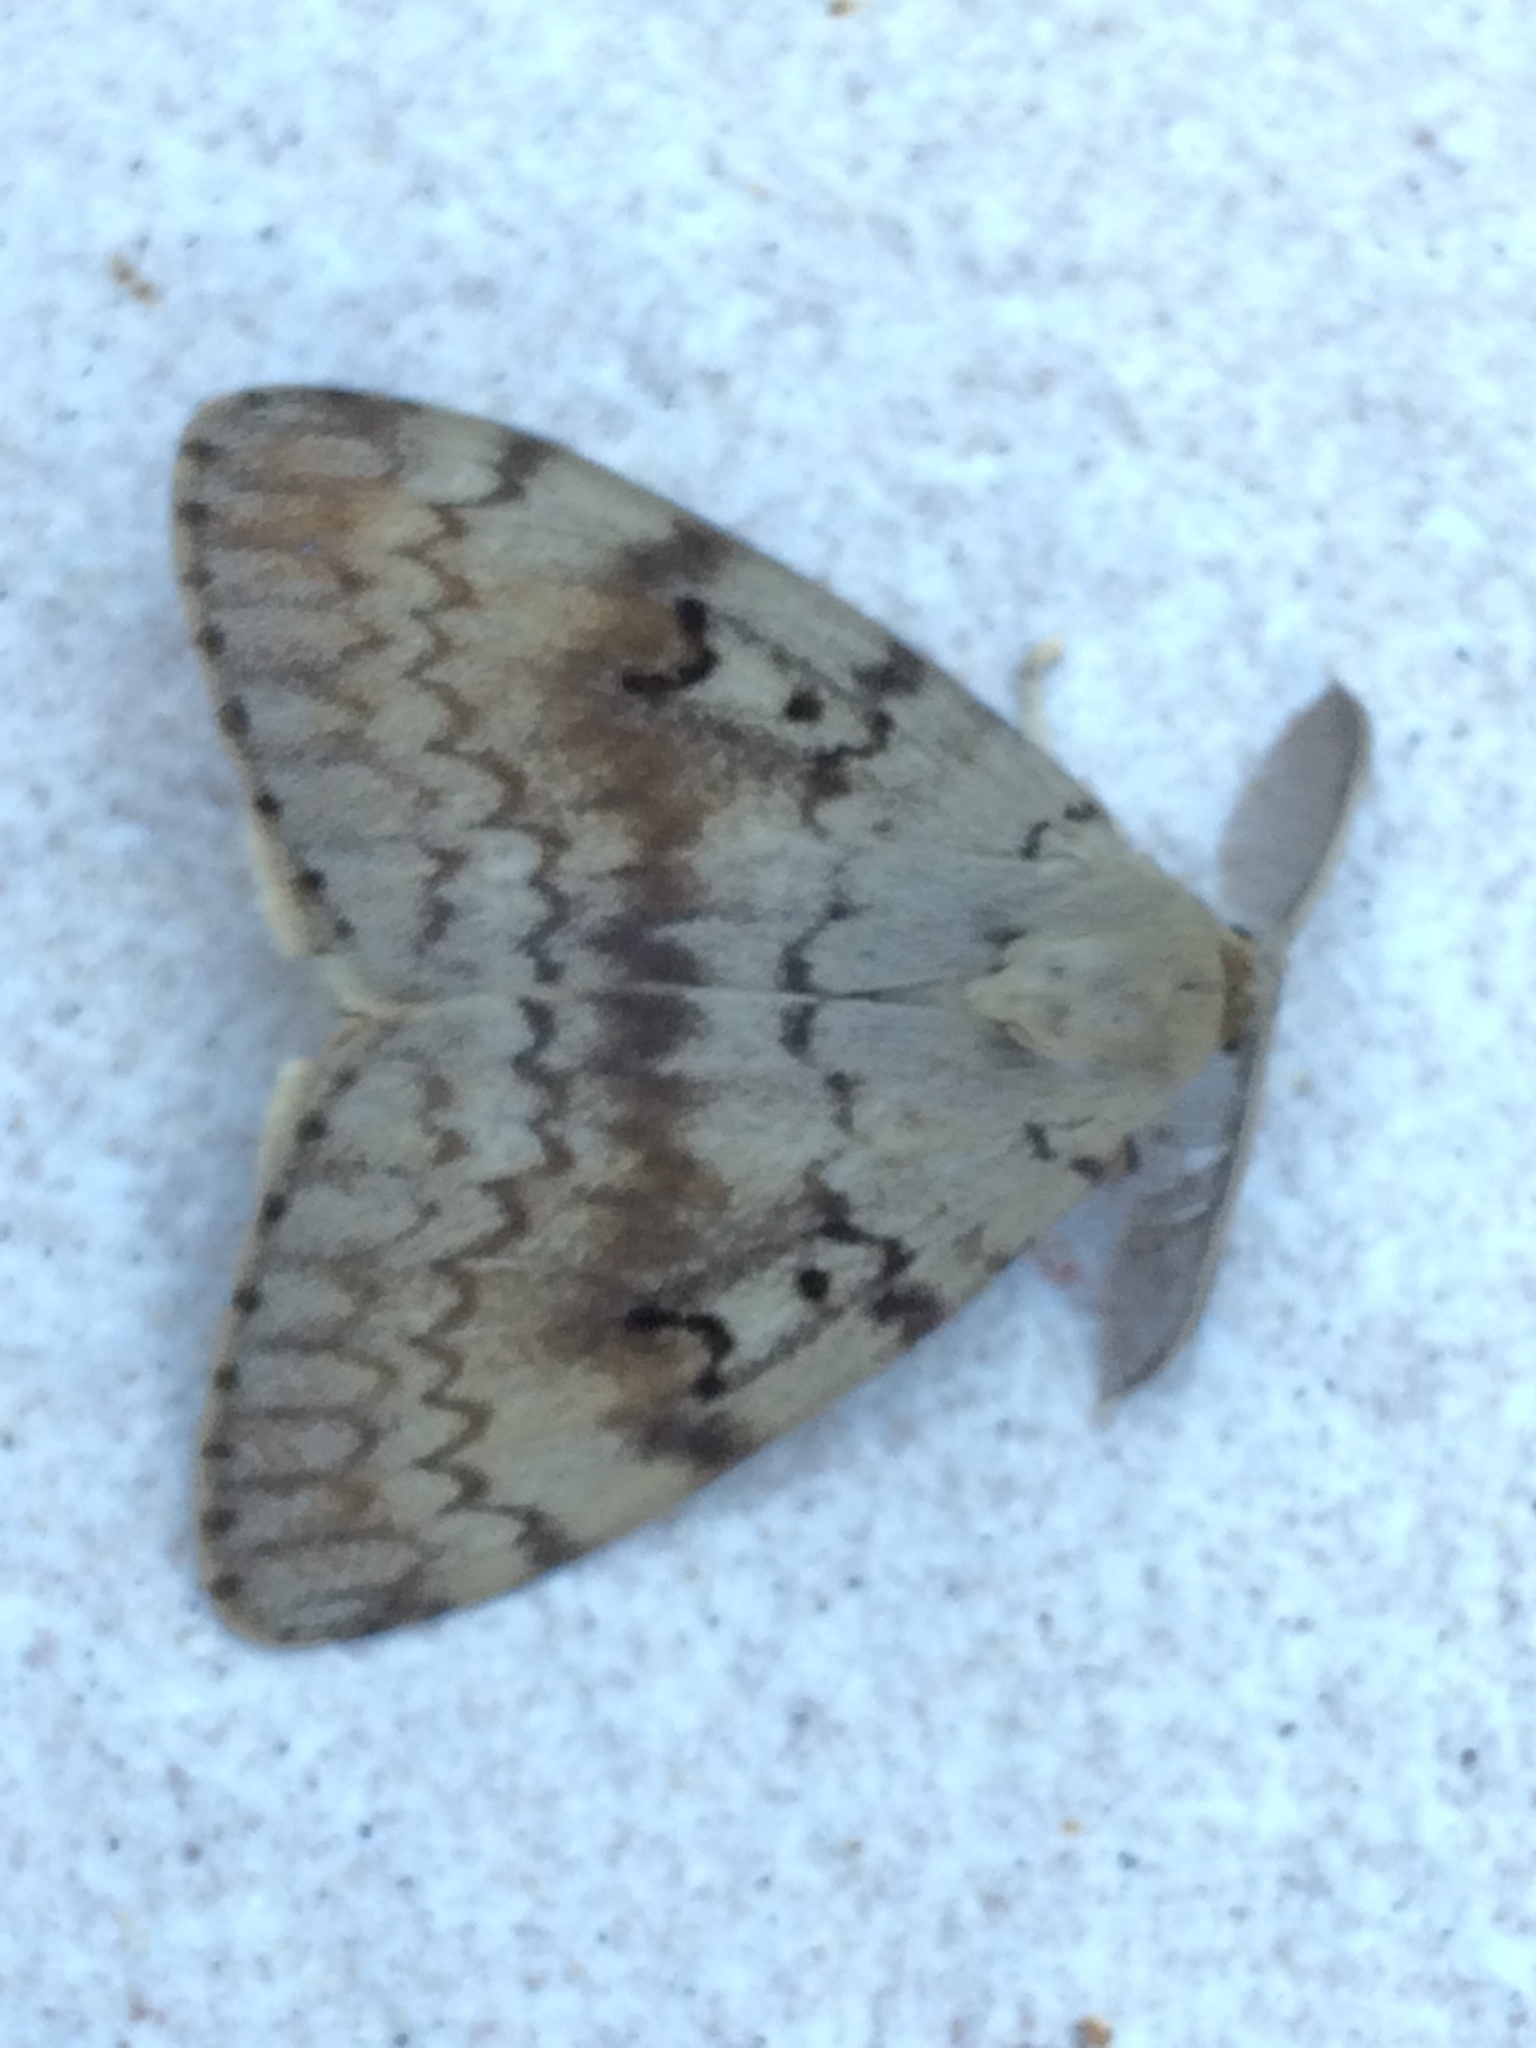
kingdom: Animalia
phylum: Arthropoda
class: Insecta
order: Lepidoptera
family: Erebidae
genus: Lymantria
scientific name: Lymantria dispar
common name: Gypsy moth
